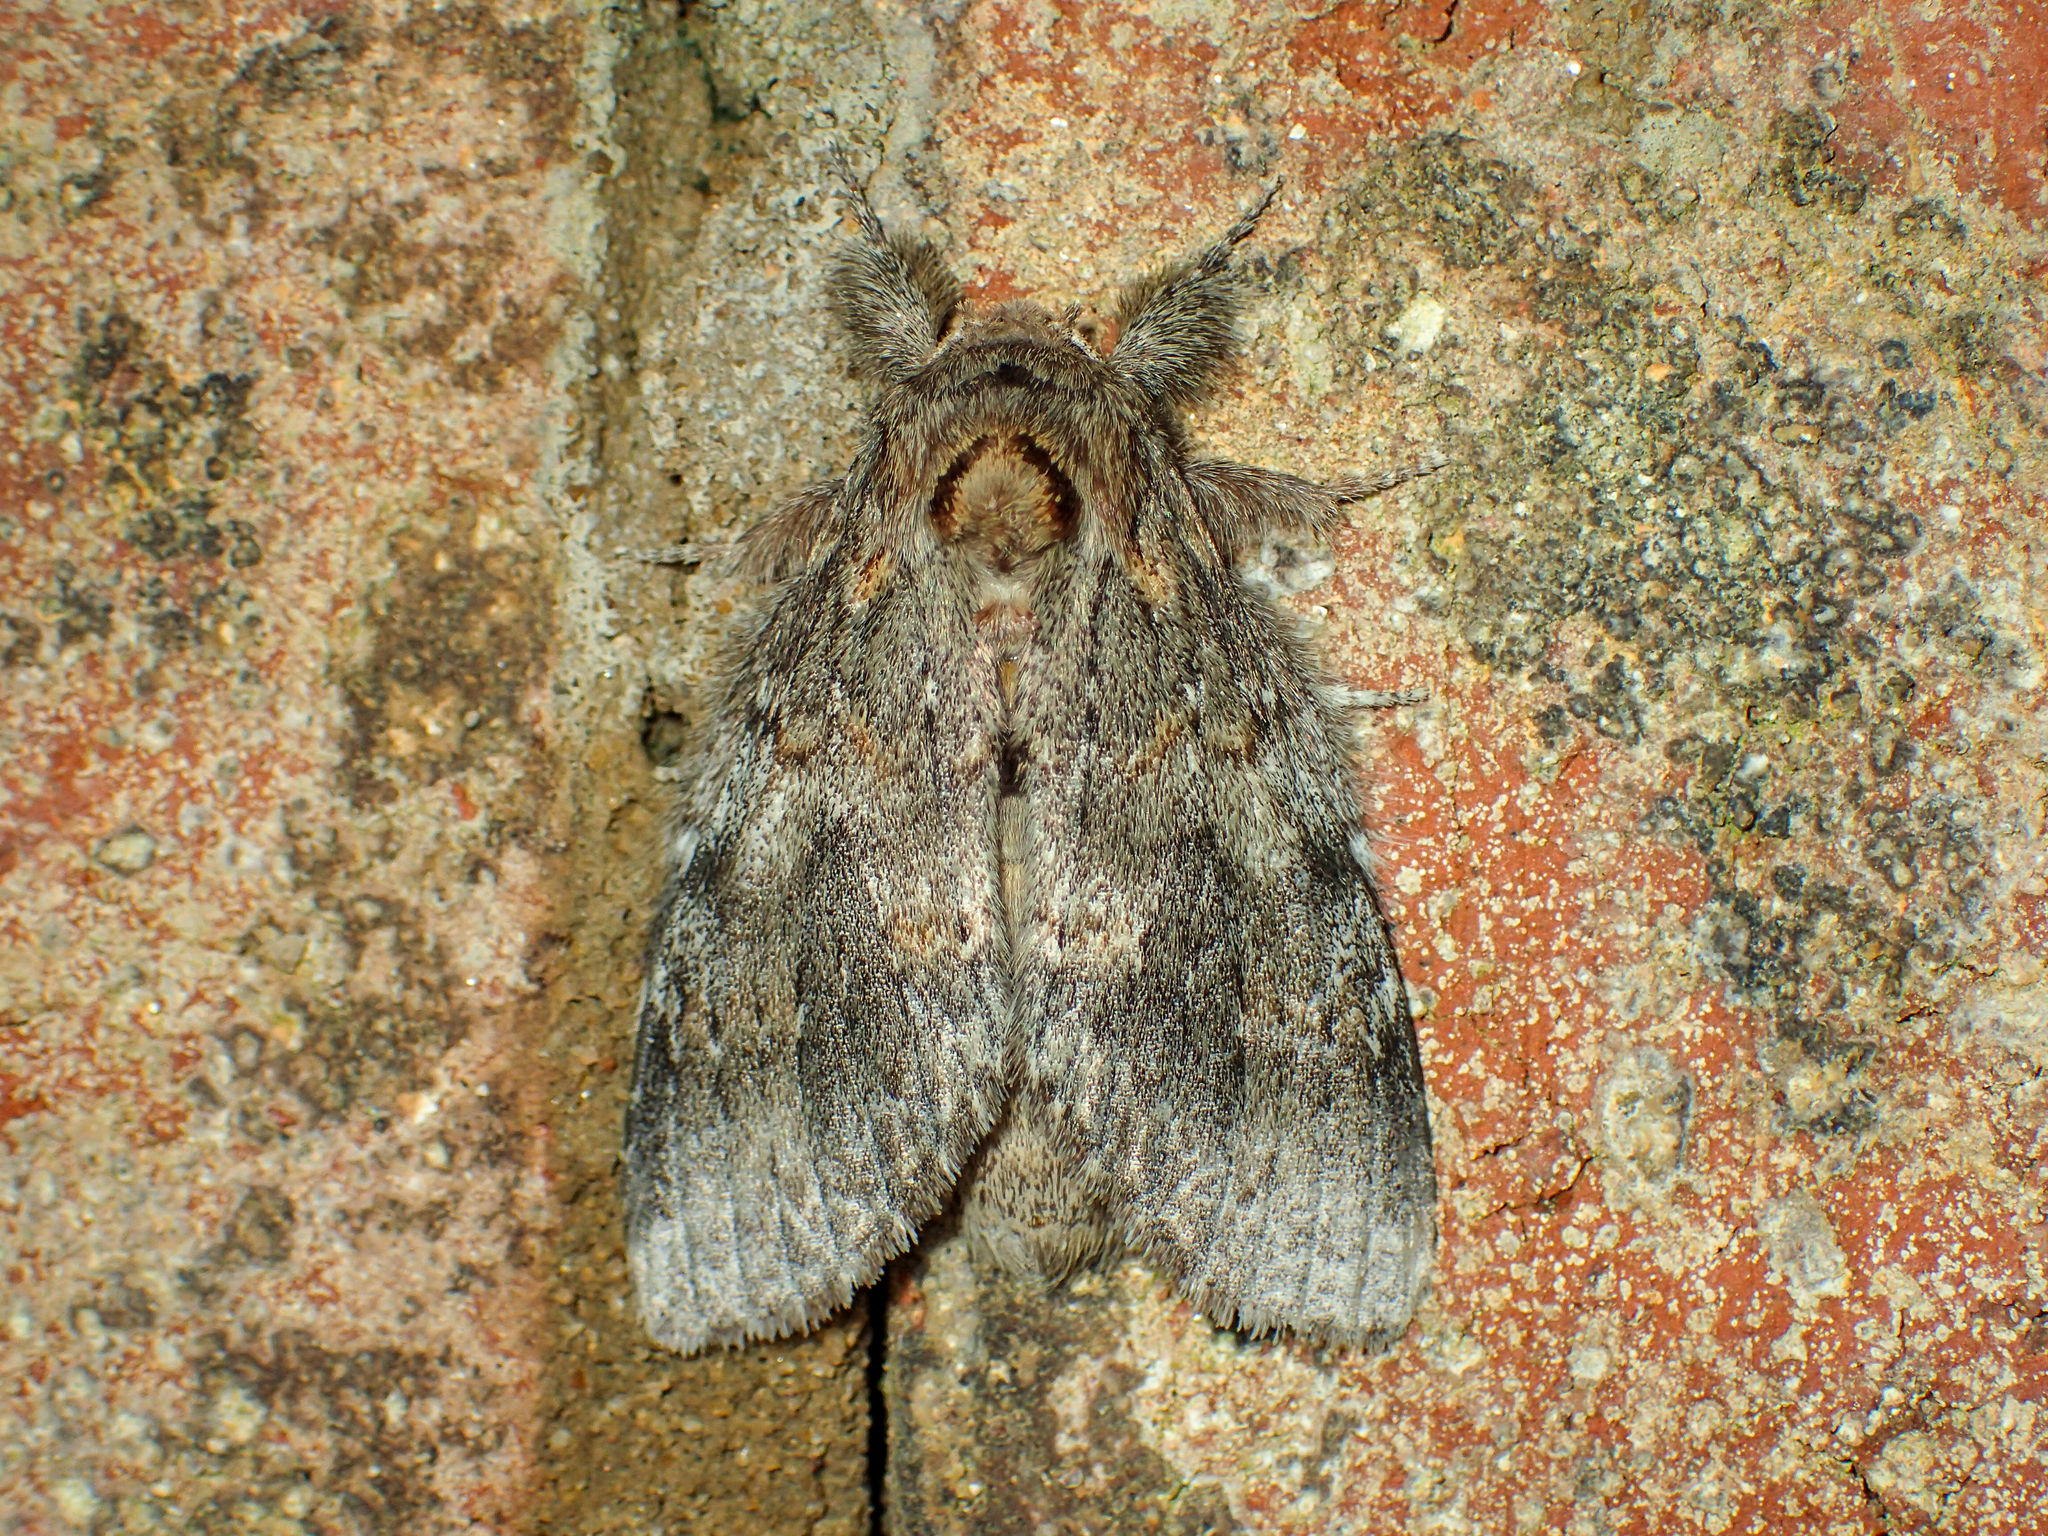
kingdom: Animalia
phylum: Arthropoda
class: Insecta
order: Lepidoptera
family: Notodontidae
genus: Peridea
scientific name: Peridea angulosa
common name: Angulose prominent
